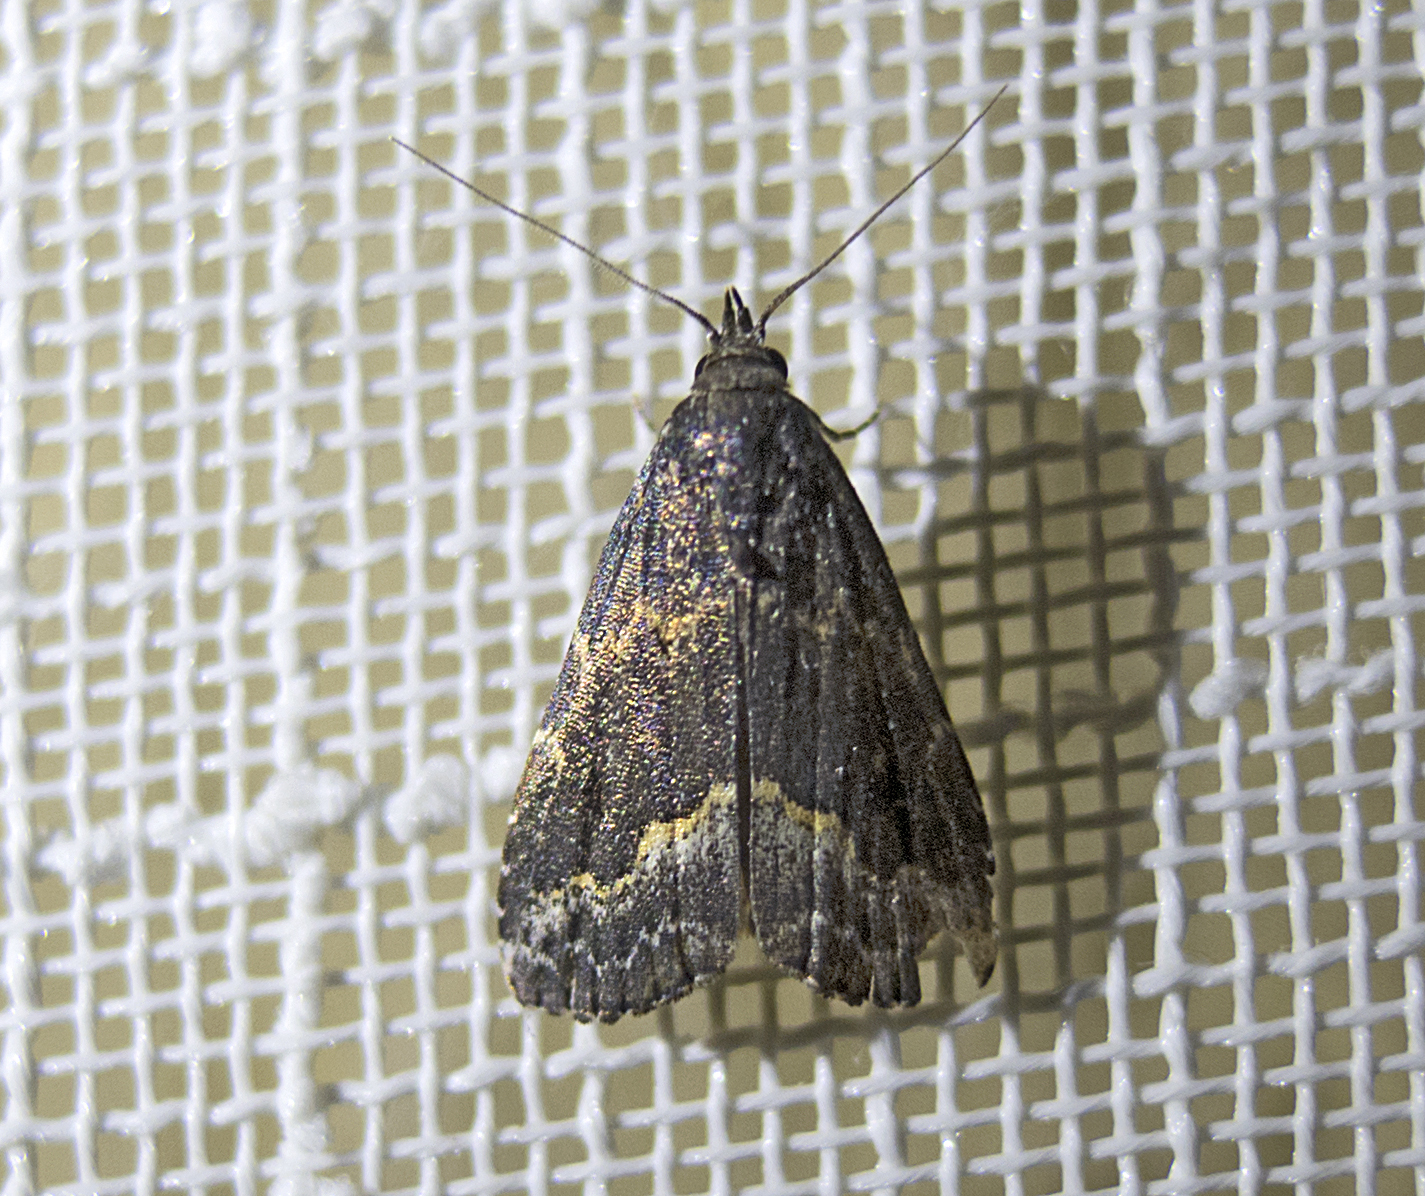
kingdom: Animalia
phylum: Arthropoda
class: Insecta
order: Lepidoptera
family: Erebidae
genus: Schrankia
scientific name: Schrankia balneorum
